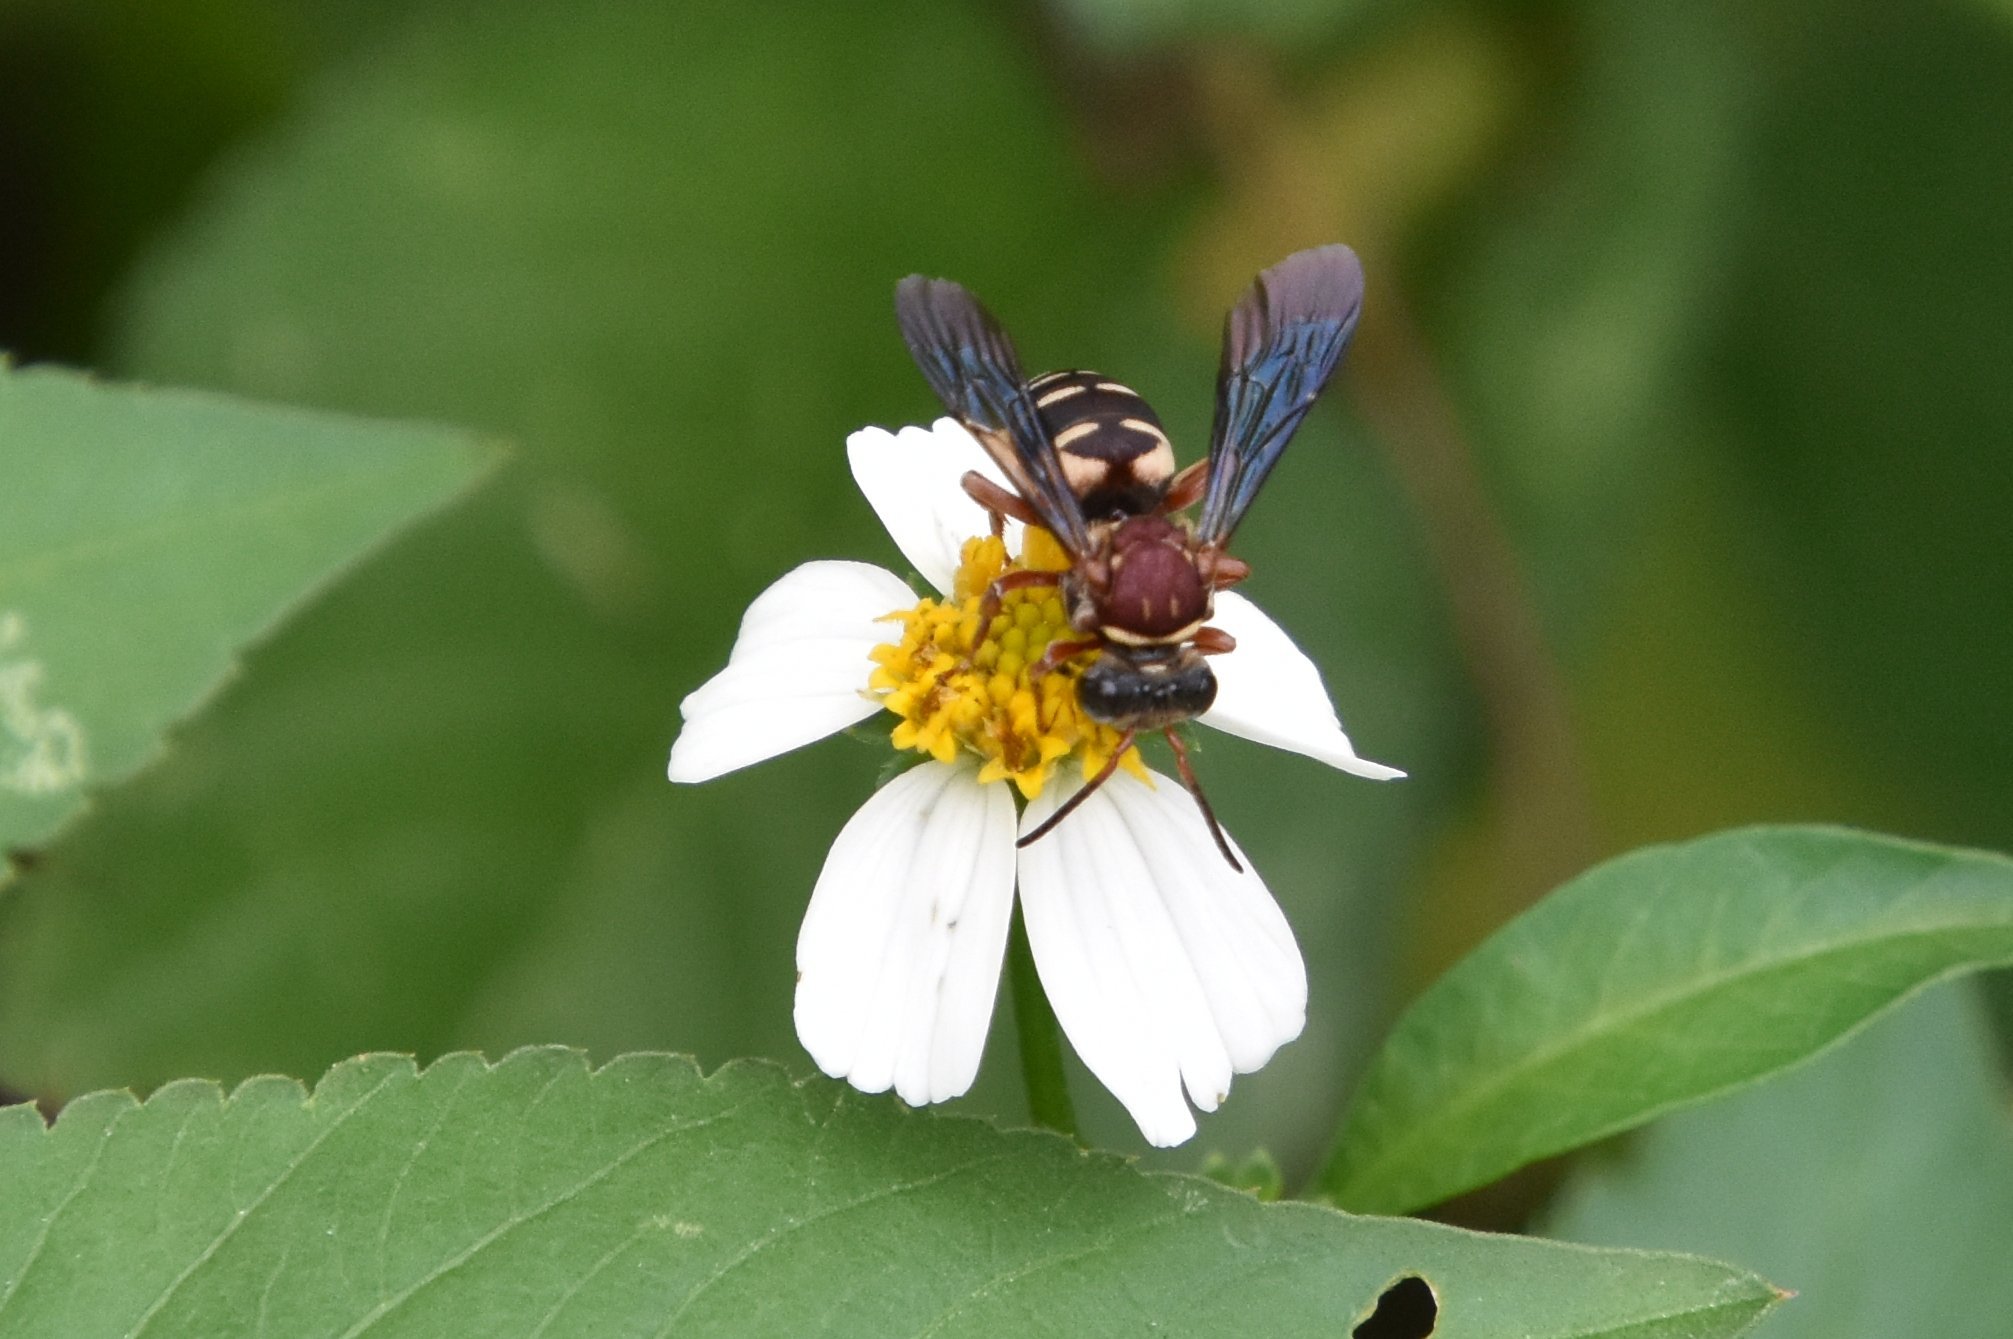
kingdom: Animalia
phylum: Arthropoda
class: Insecta
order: Hymenoptera
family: Apidae
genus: Triepeolus
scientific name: Triepeolus rufithorax
